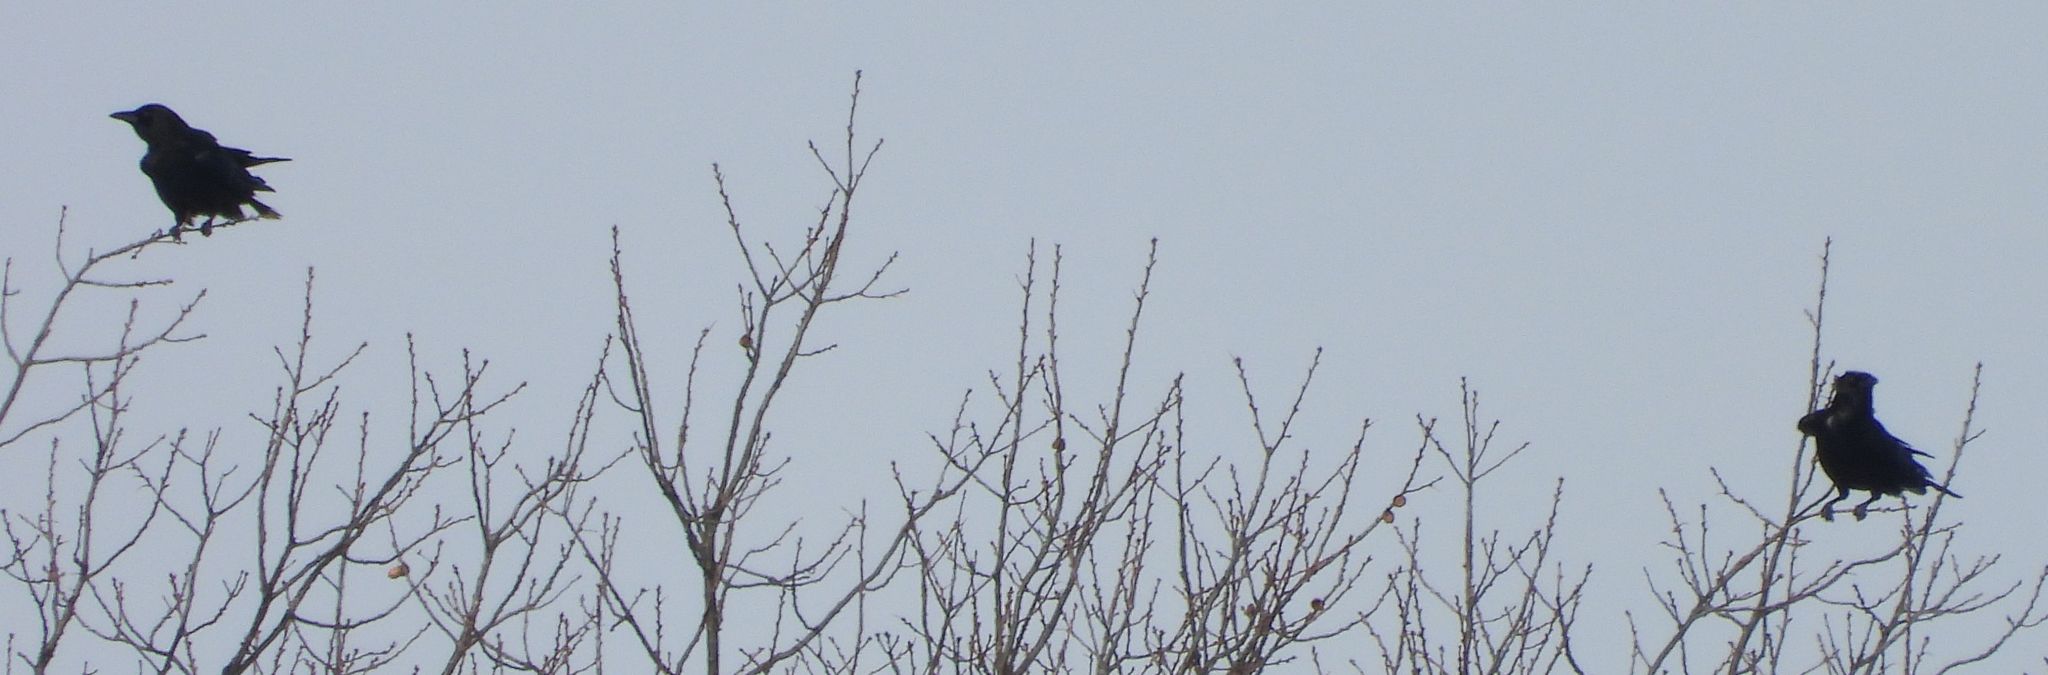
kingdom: Animalia
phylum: Chordata
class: Aves
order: Passeriformes
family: Corvidae
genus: Corvus
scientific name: Corvus brachyrhynchos
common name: American crow
